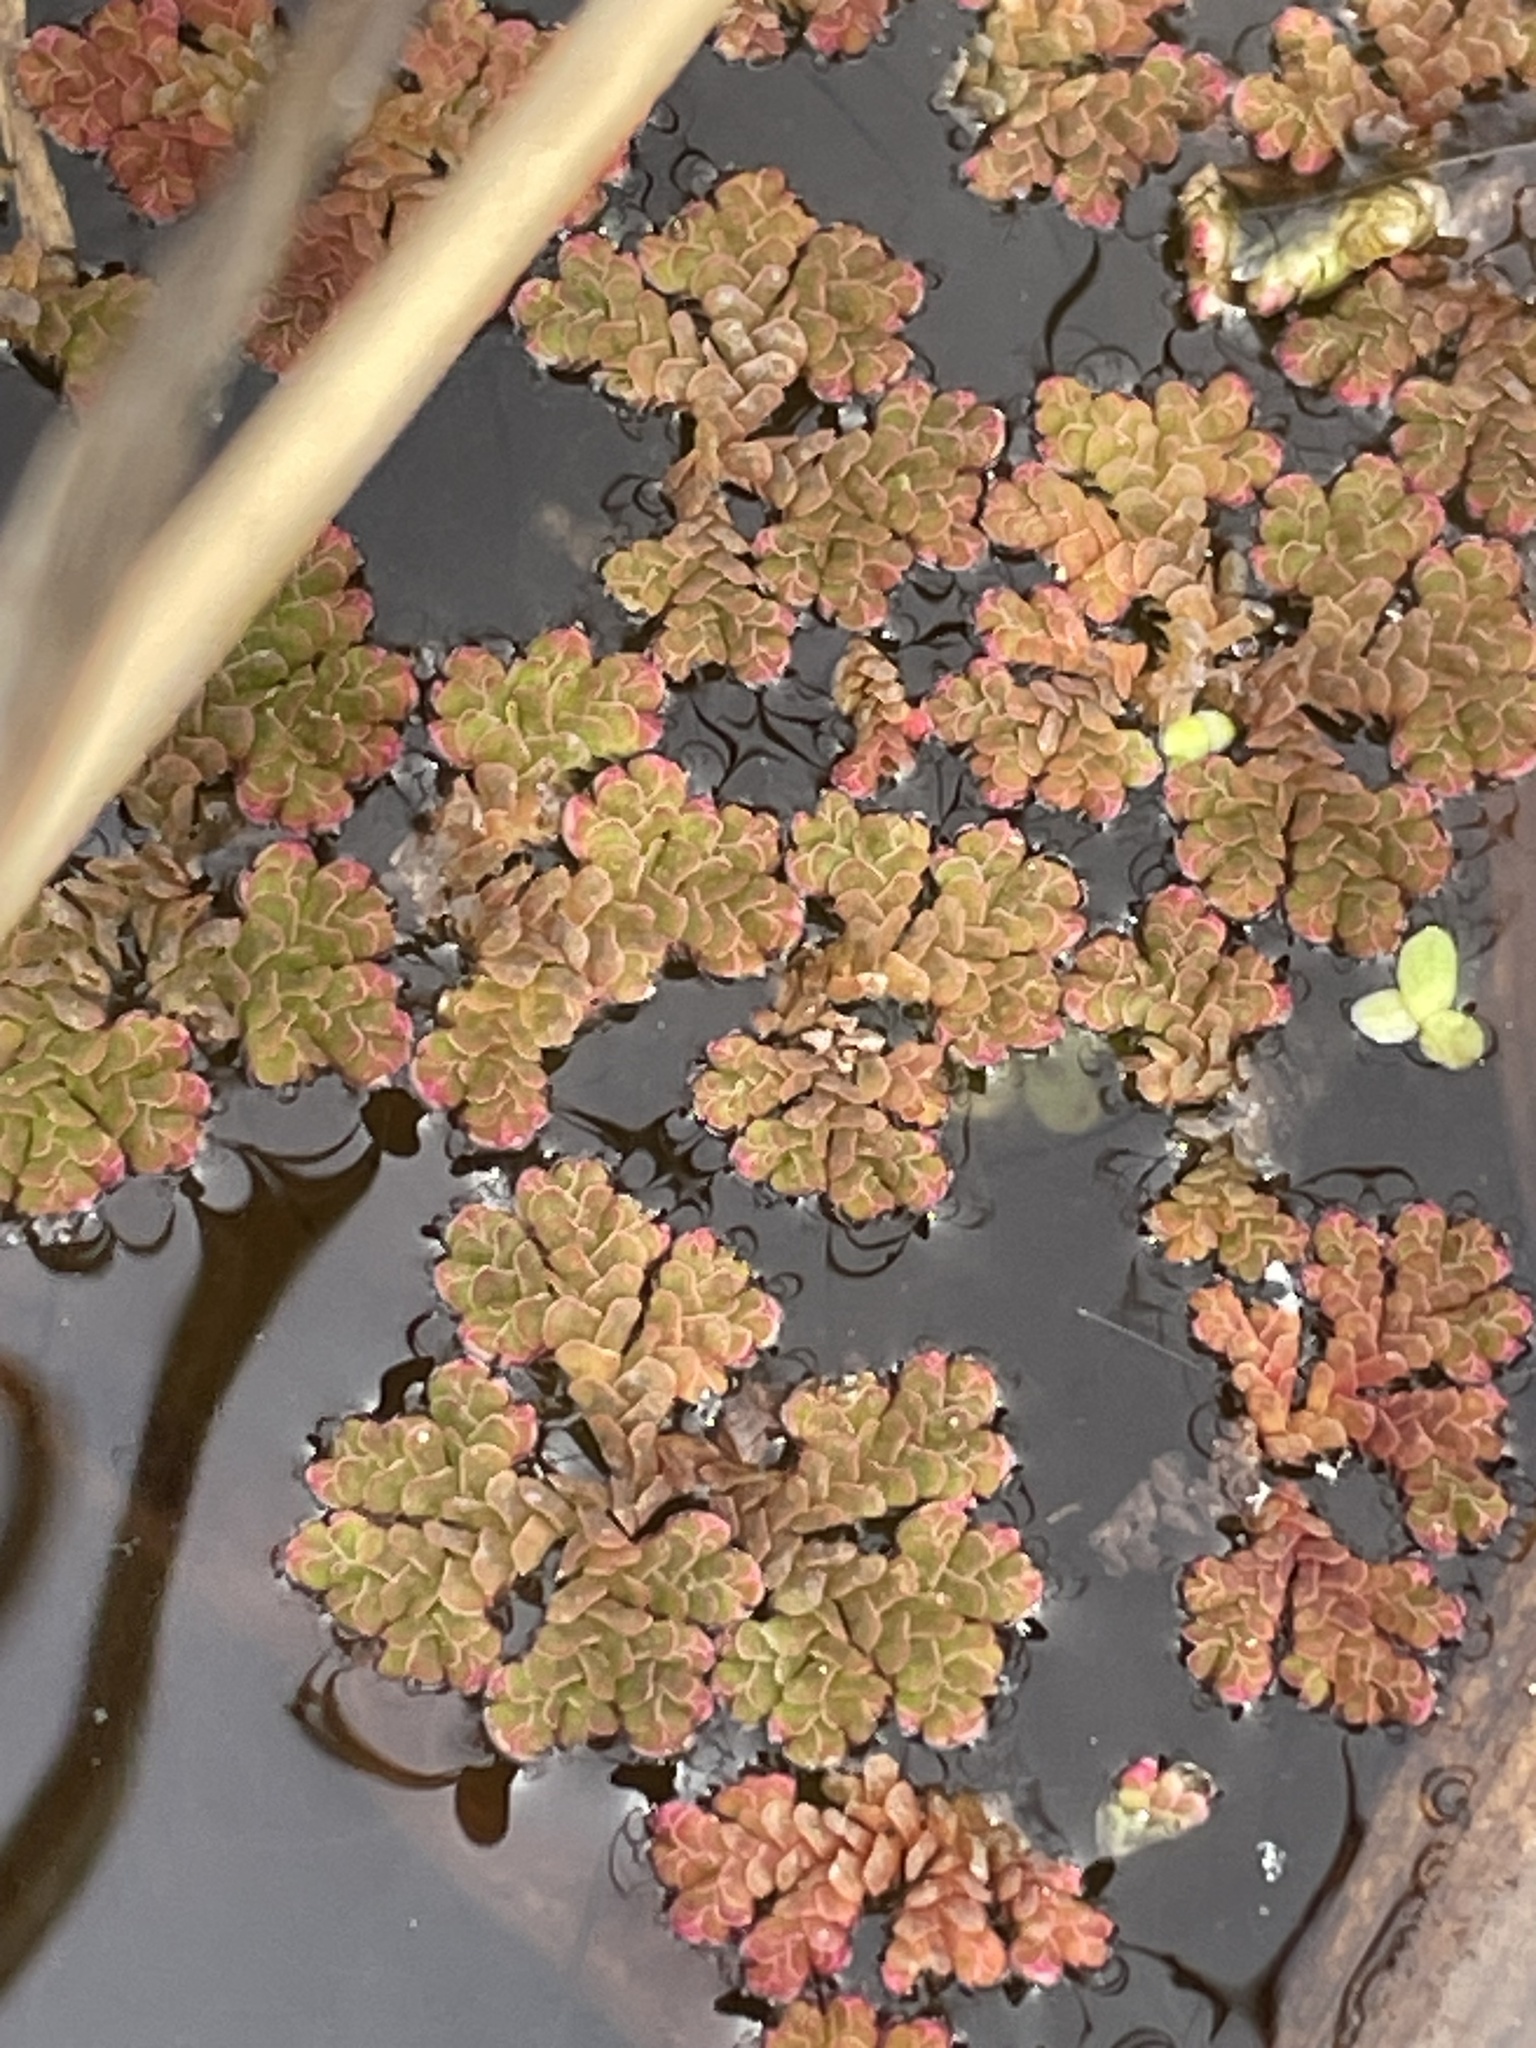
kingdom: Plantae
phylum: Tracheophyta
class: Polypodiopsida
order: Salviniales
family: Salviniaceae
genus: Azolla
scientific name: Azolla caroliniana
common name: Carolina mosquitofern
